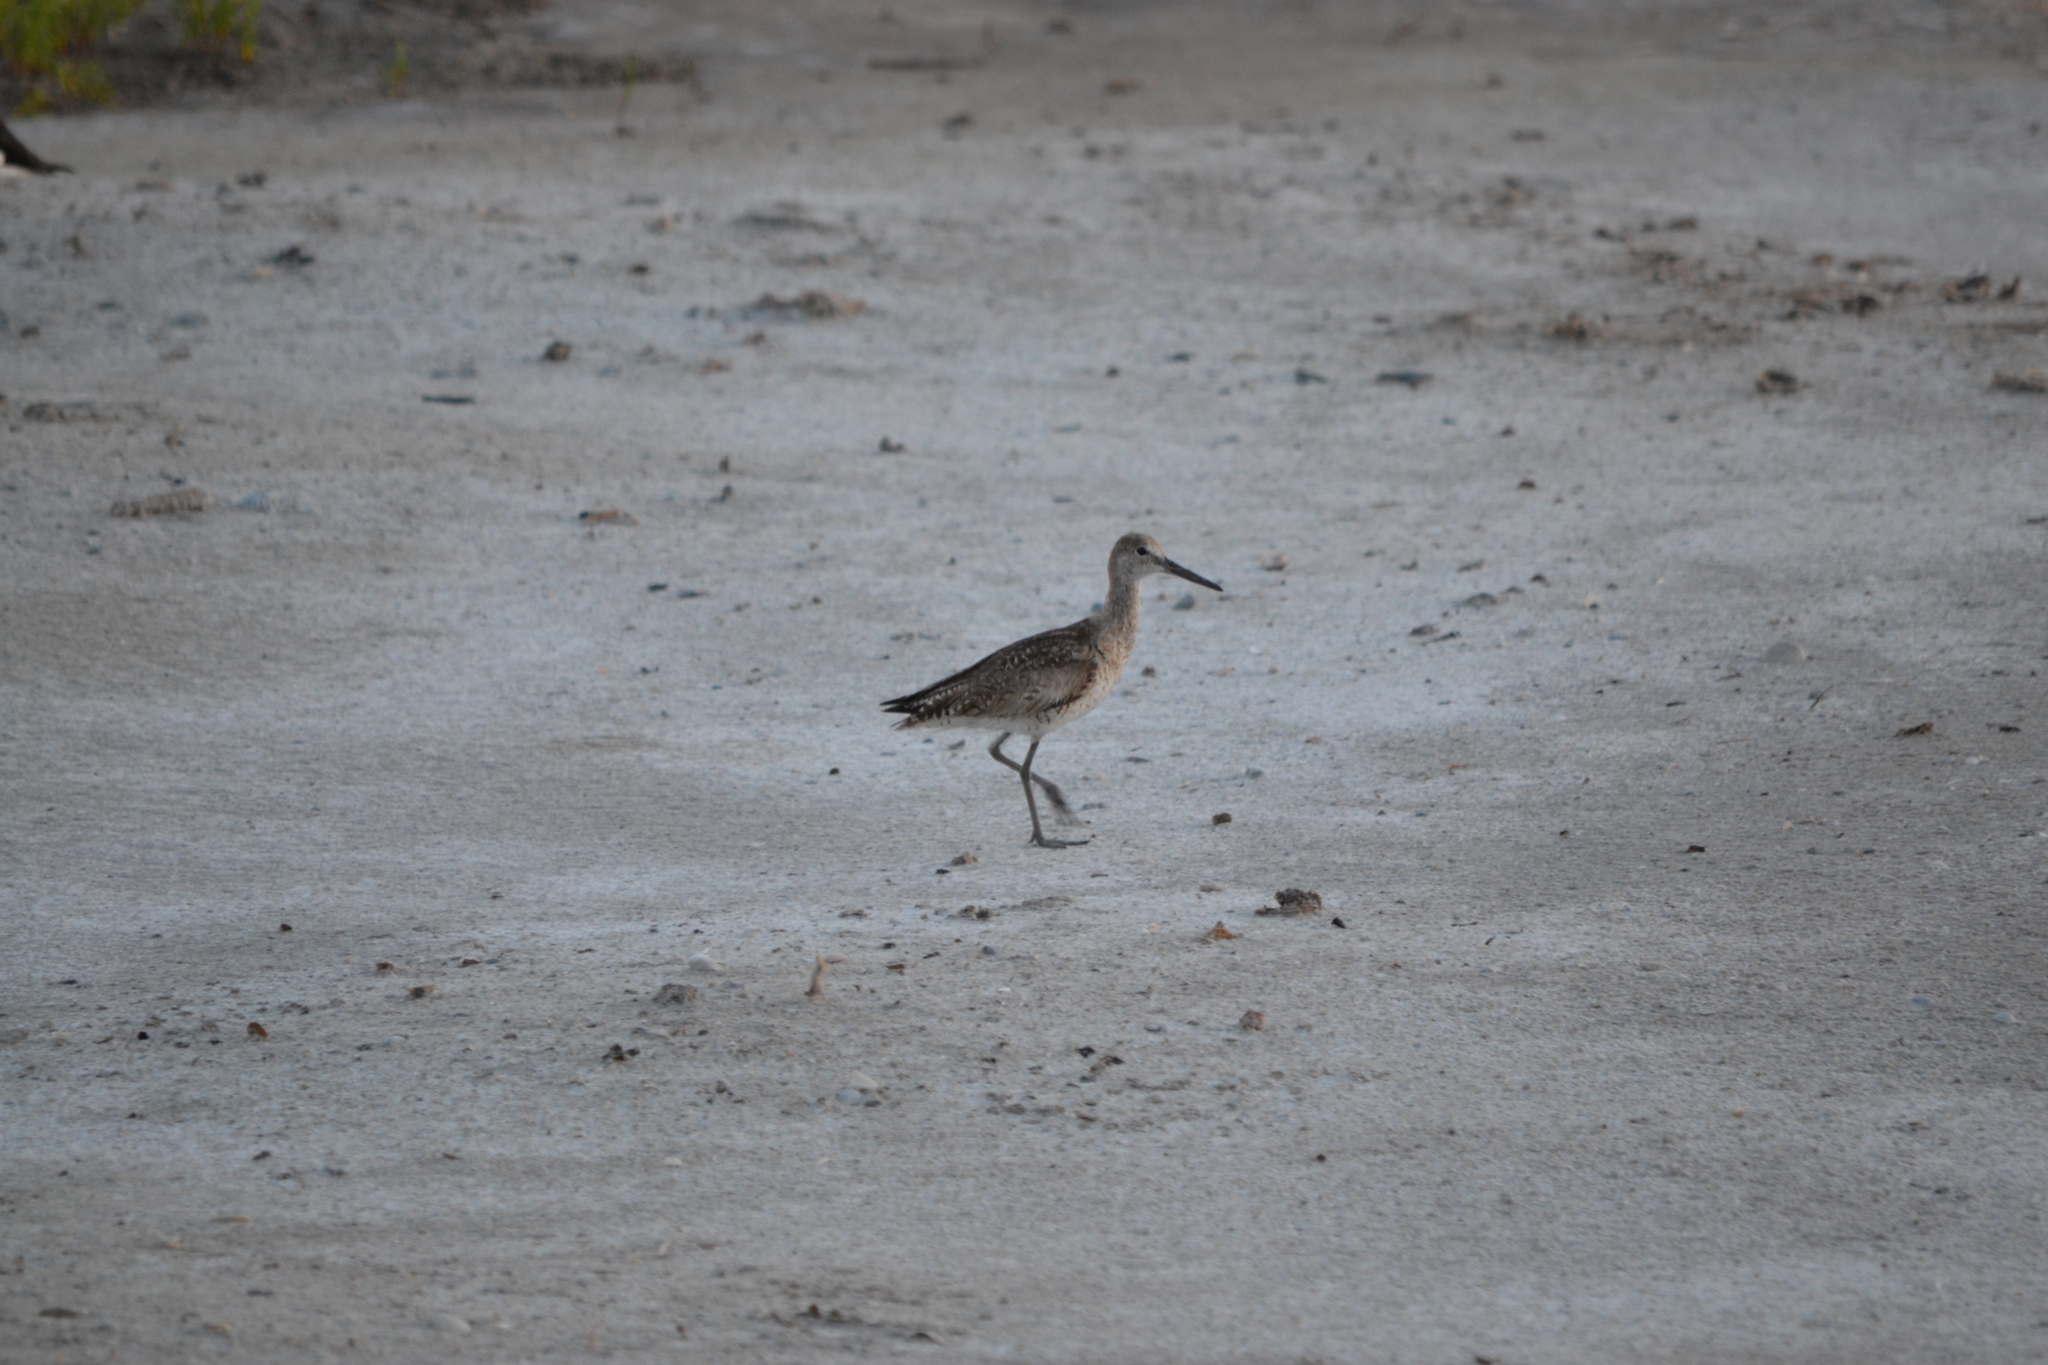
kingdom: Animalia
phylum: Chordata
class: Aves
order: Charadriiformes
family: Scolopacidae
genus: Tringa
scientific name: Tringa semipalmata
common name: Willet
